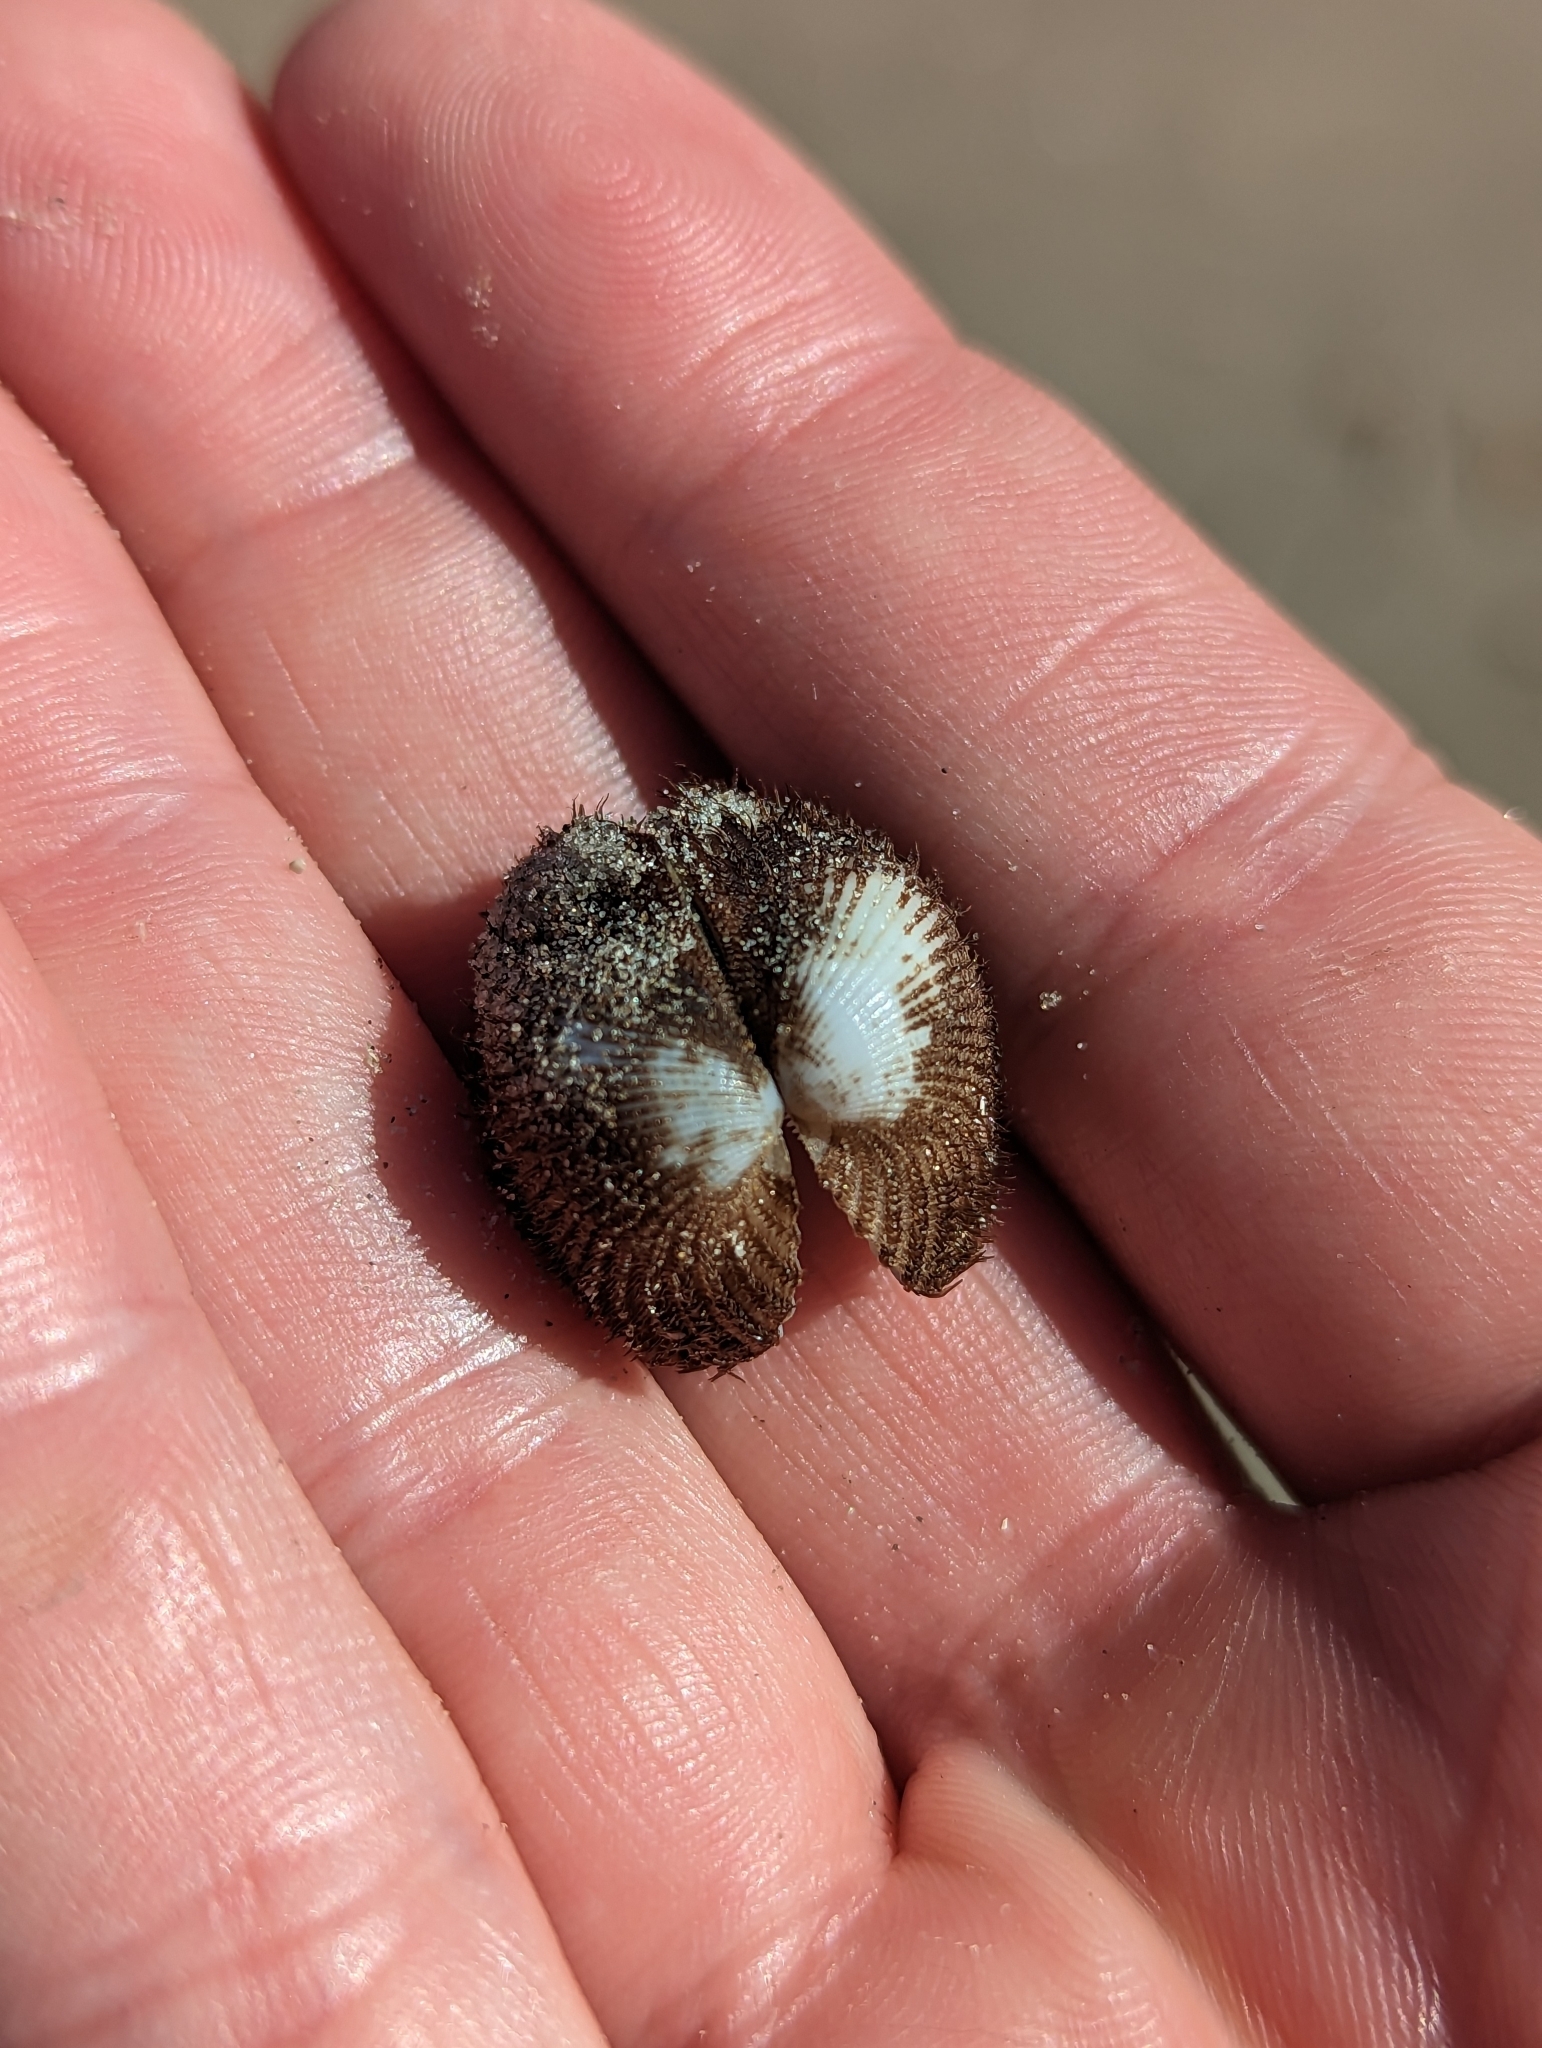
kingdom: Animalia
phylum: Mollusca
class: Bivalvia
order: Arcida
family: Arcidae
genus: Lunarca
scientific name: Lunarca ovalis
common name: Blood ark
